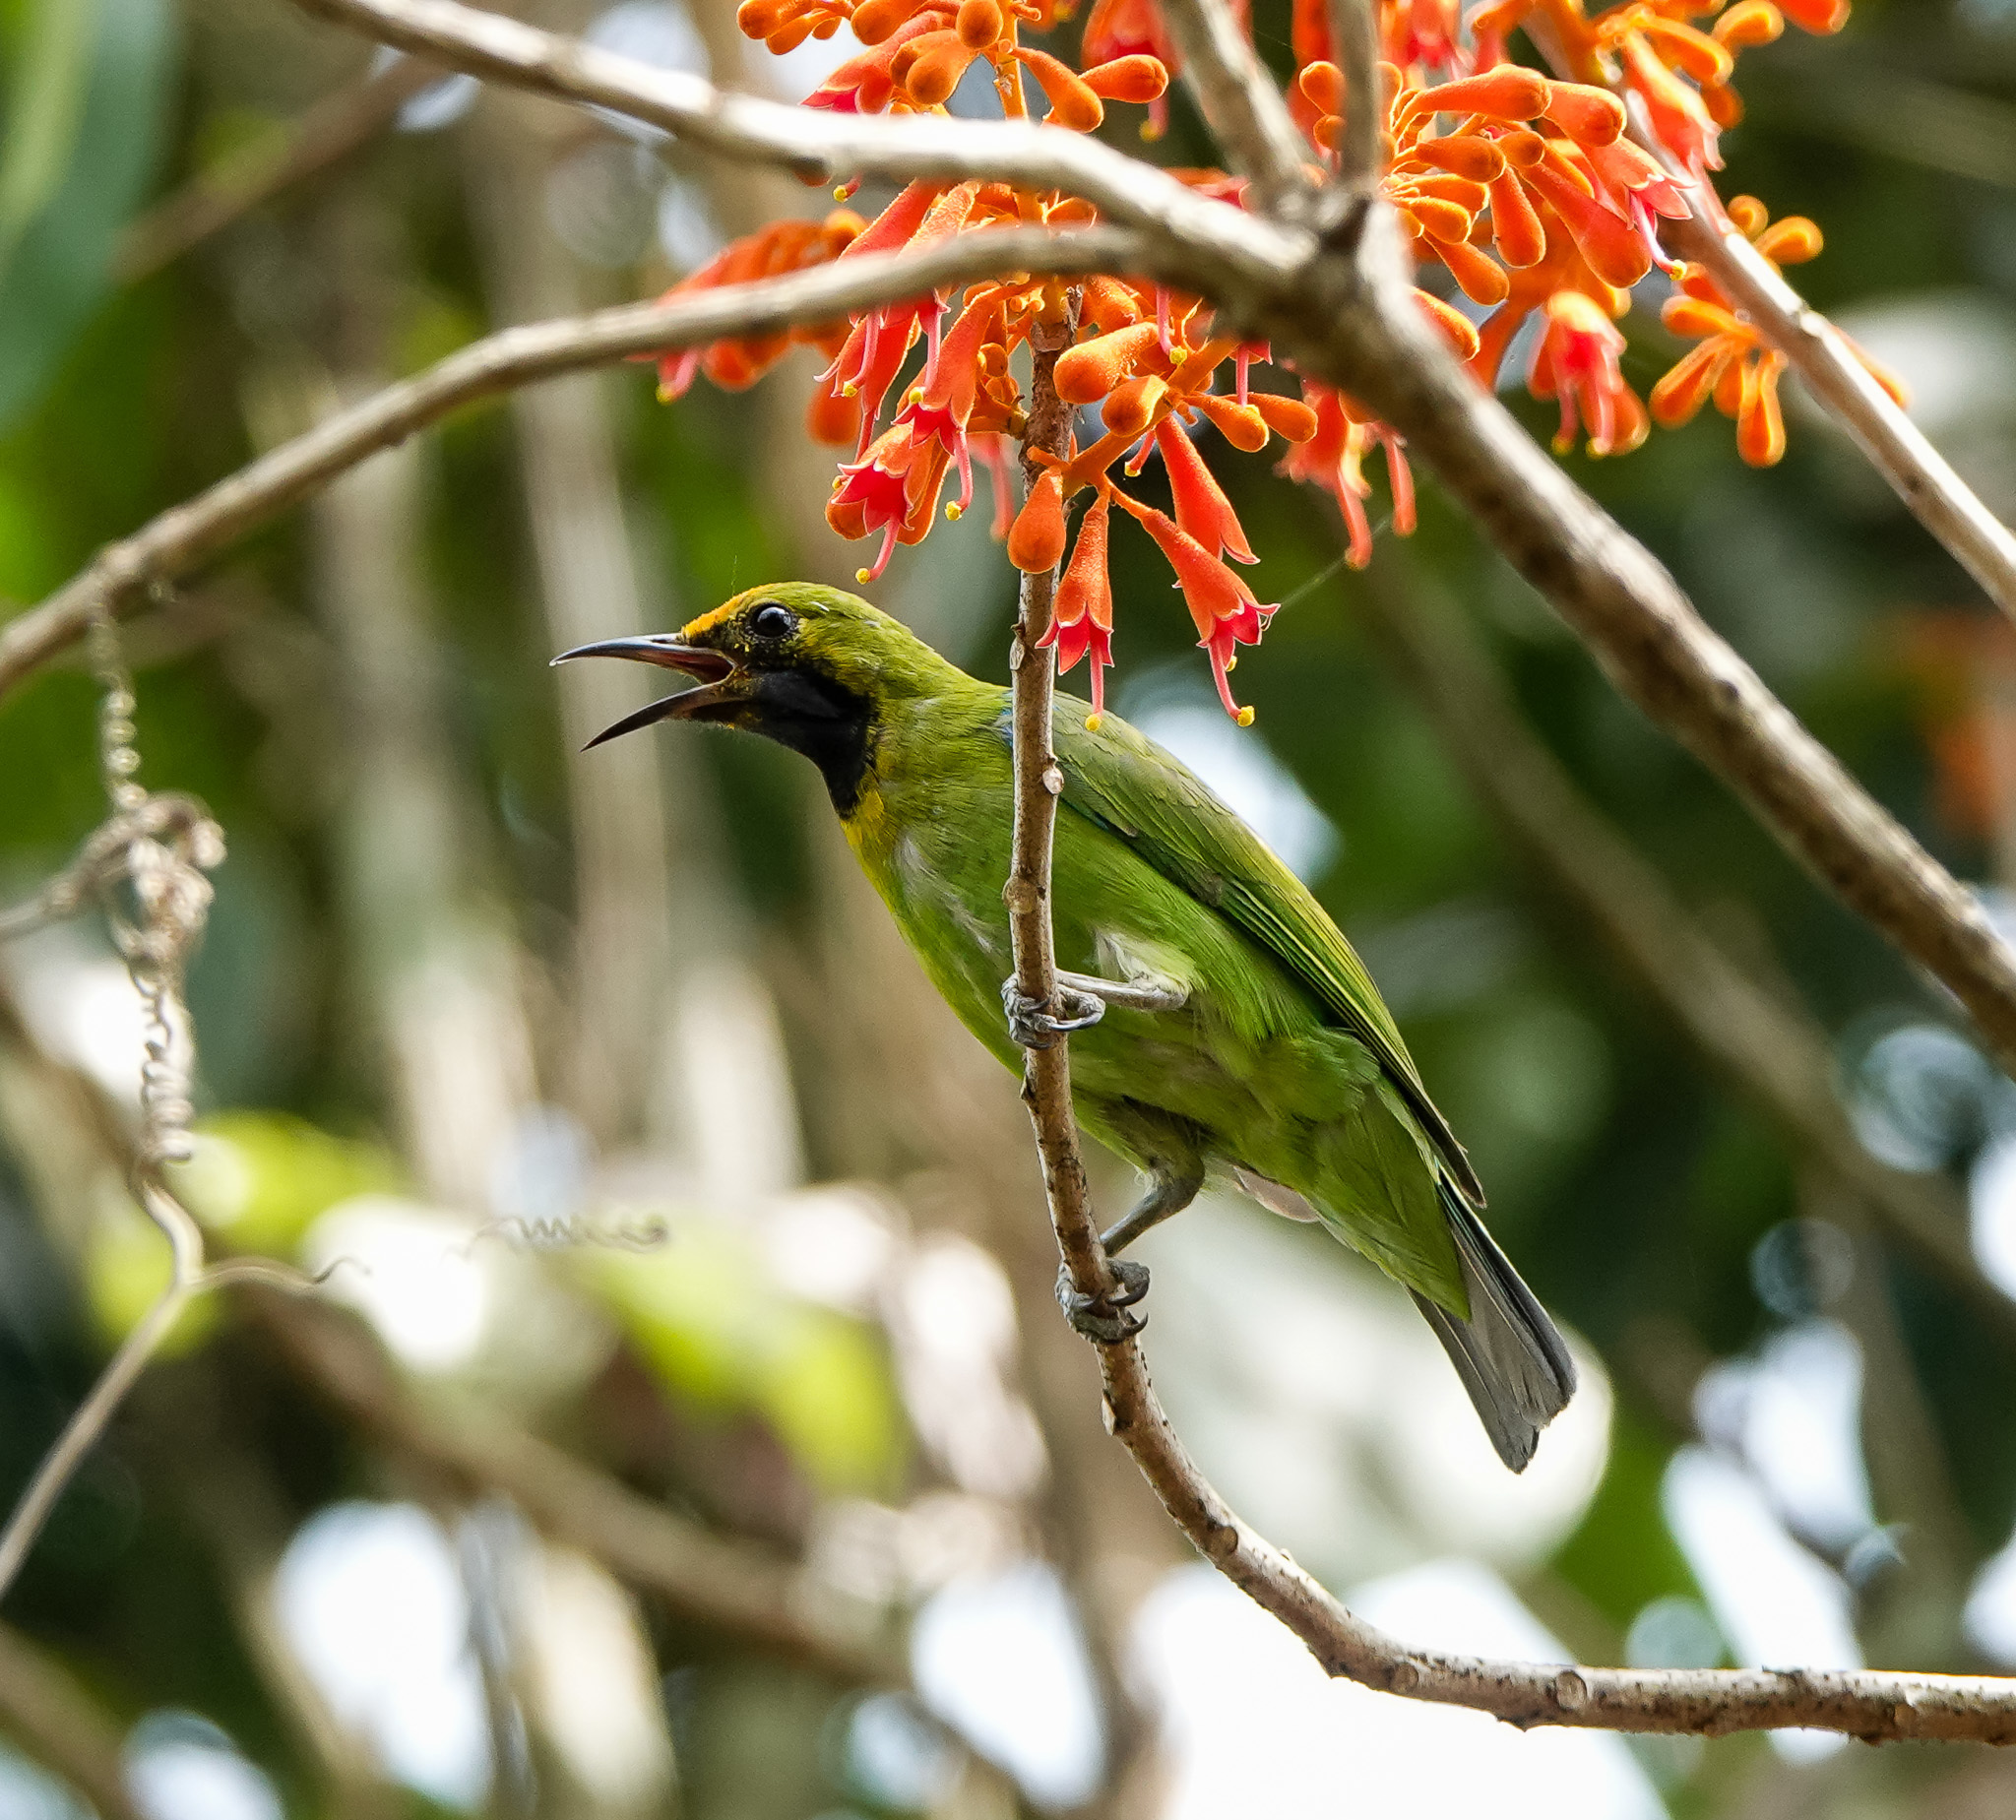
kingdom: Animalia
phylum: Chordata
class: Aves
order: Passeriformes
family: Chloropseidae
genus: Chloropsis
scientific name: Chloropsis aurifrons
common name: Golden-fronted leafbird
